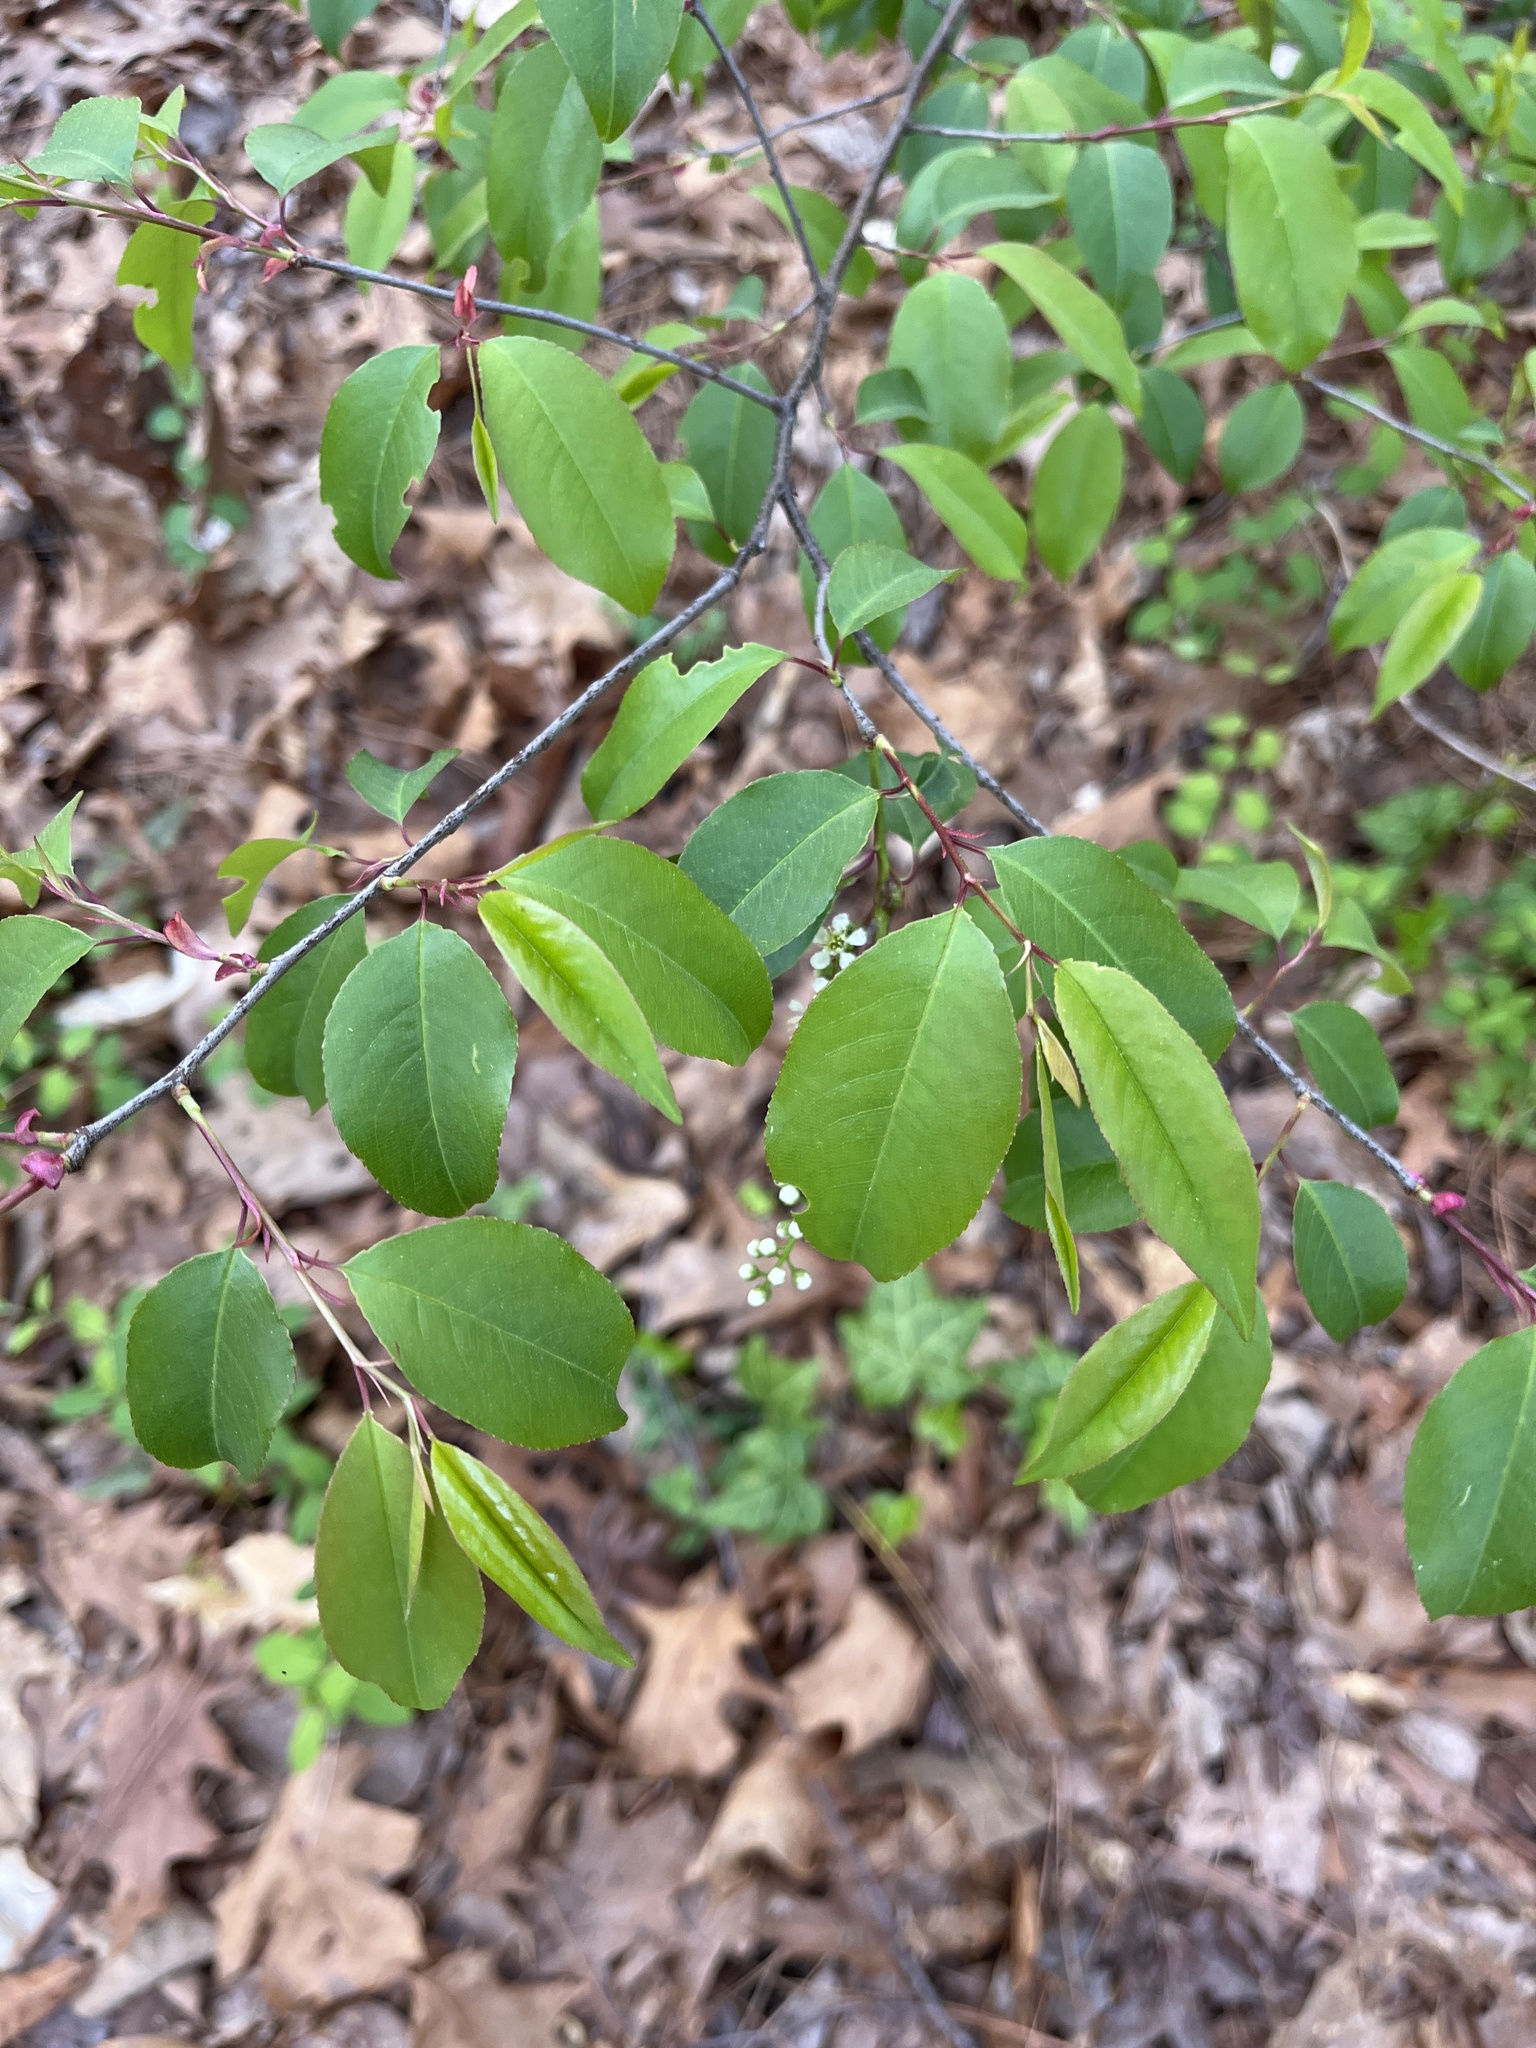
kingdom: Plantae
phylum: Tracheophyta
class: Magnoliopsida
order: Rosales
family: Rosaceae
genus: Prunus
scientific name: Prunus serotina
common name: Black cherry
